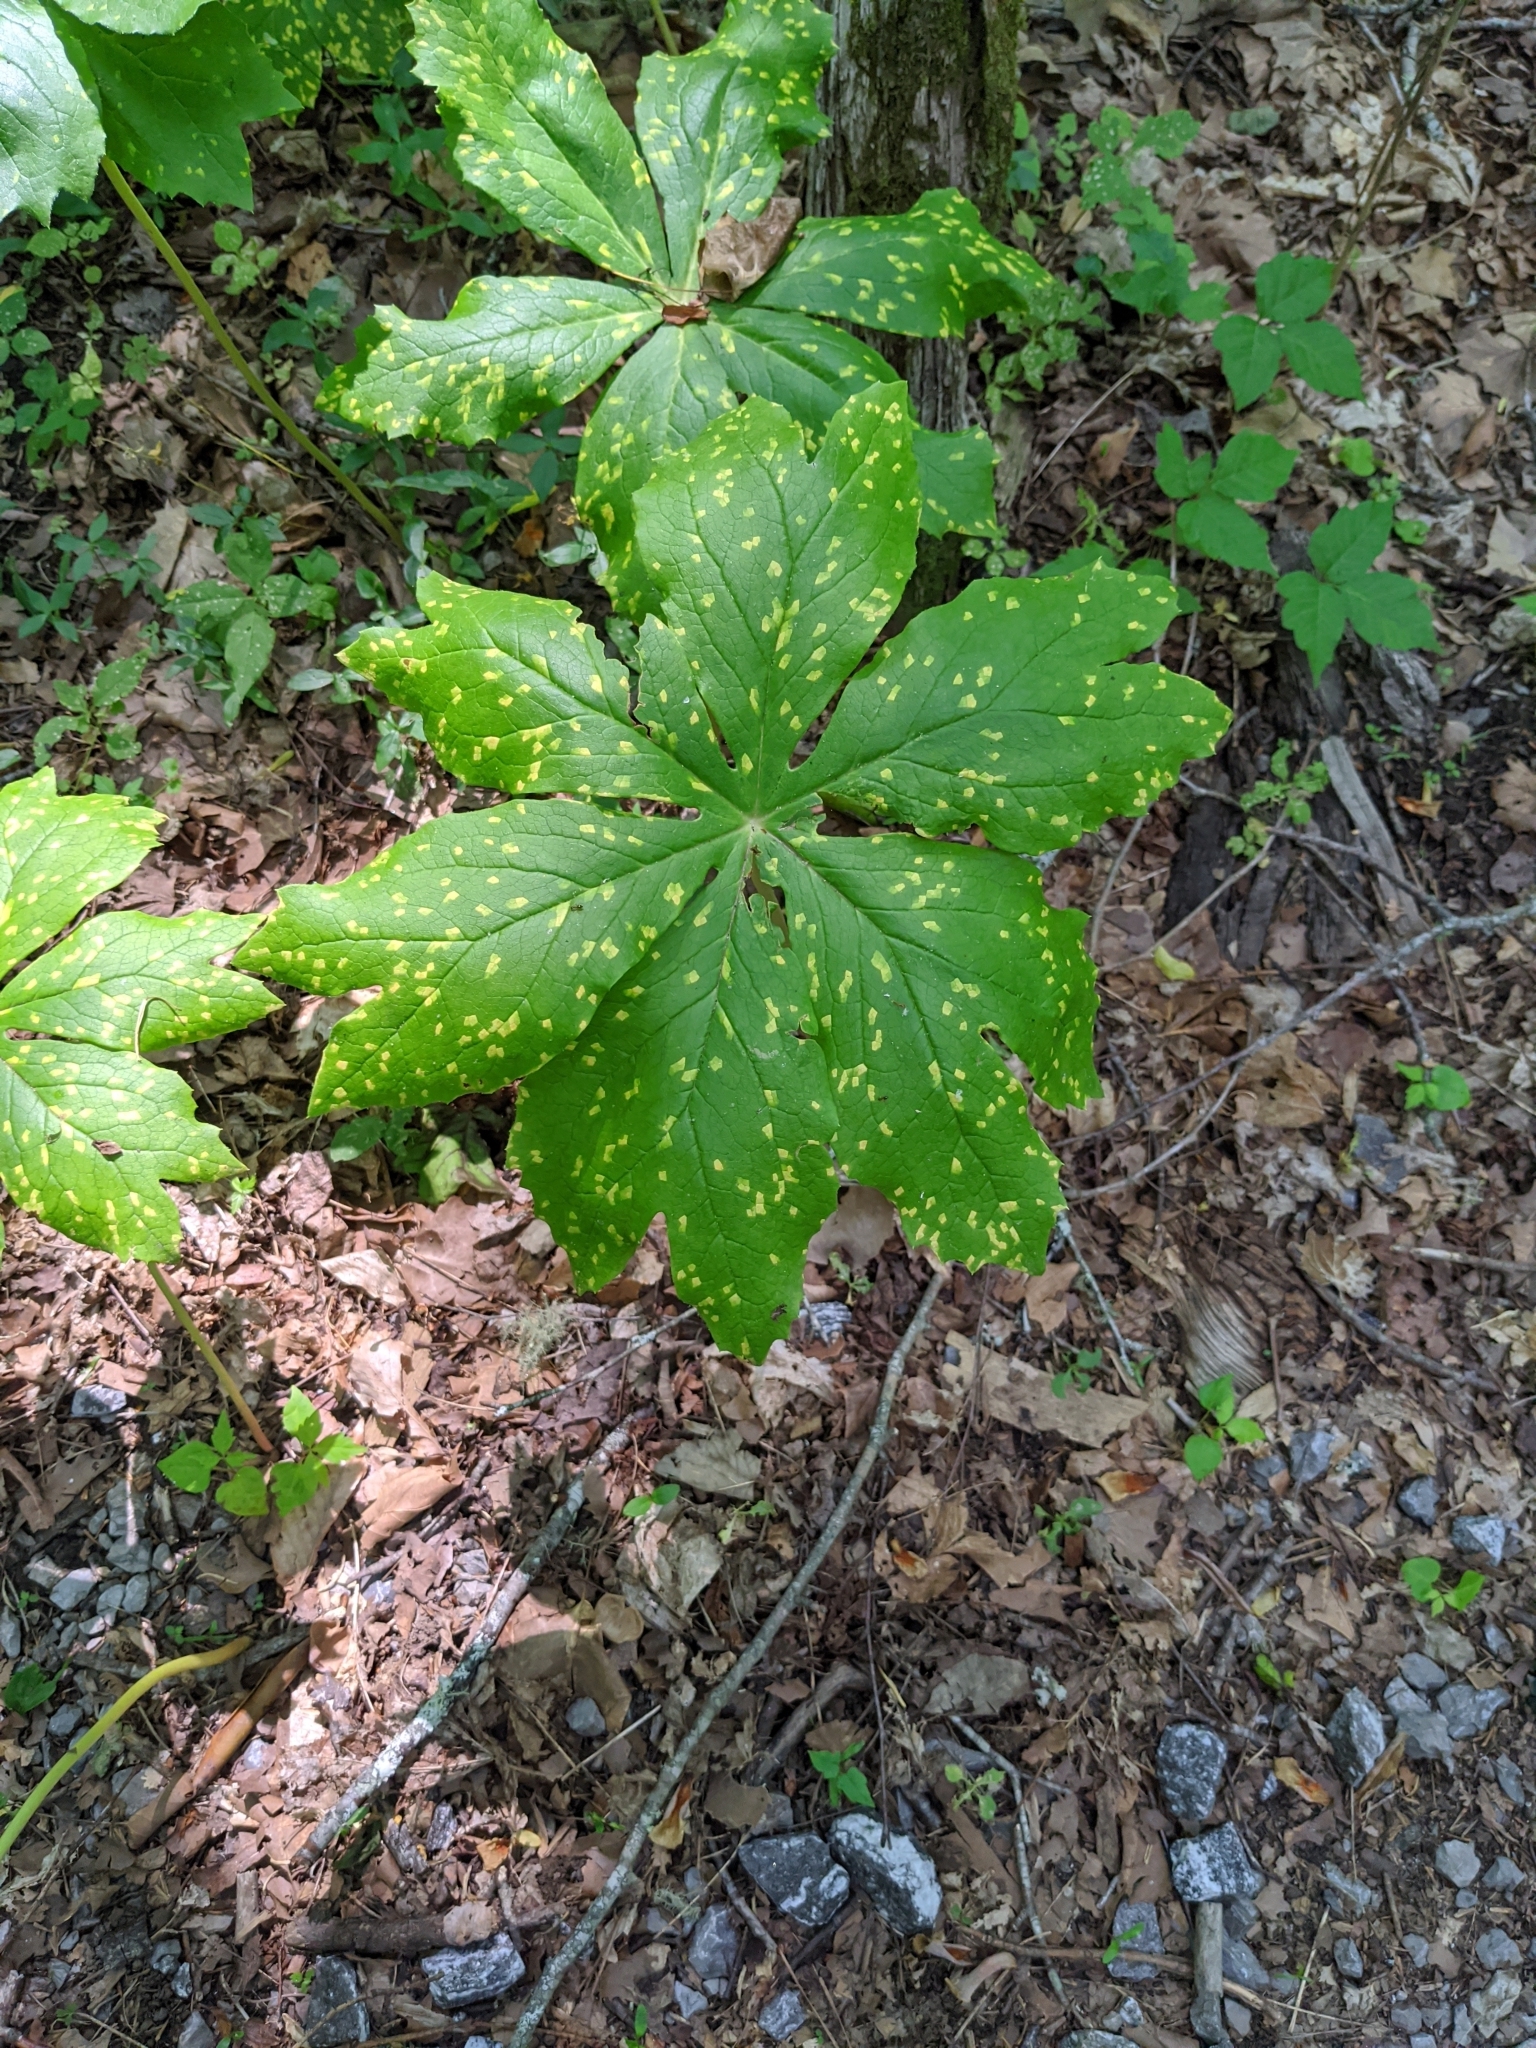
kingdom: Fungi
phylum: Basidiomycota
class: Pucciniomycetes
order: Pucciniales
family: Pucciniaceae
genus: Puccinia
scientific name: Puccinia podophylli
